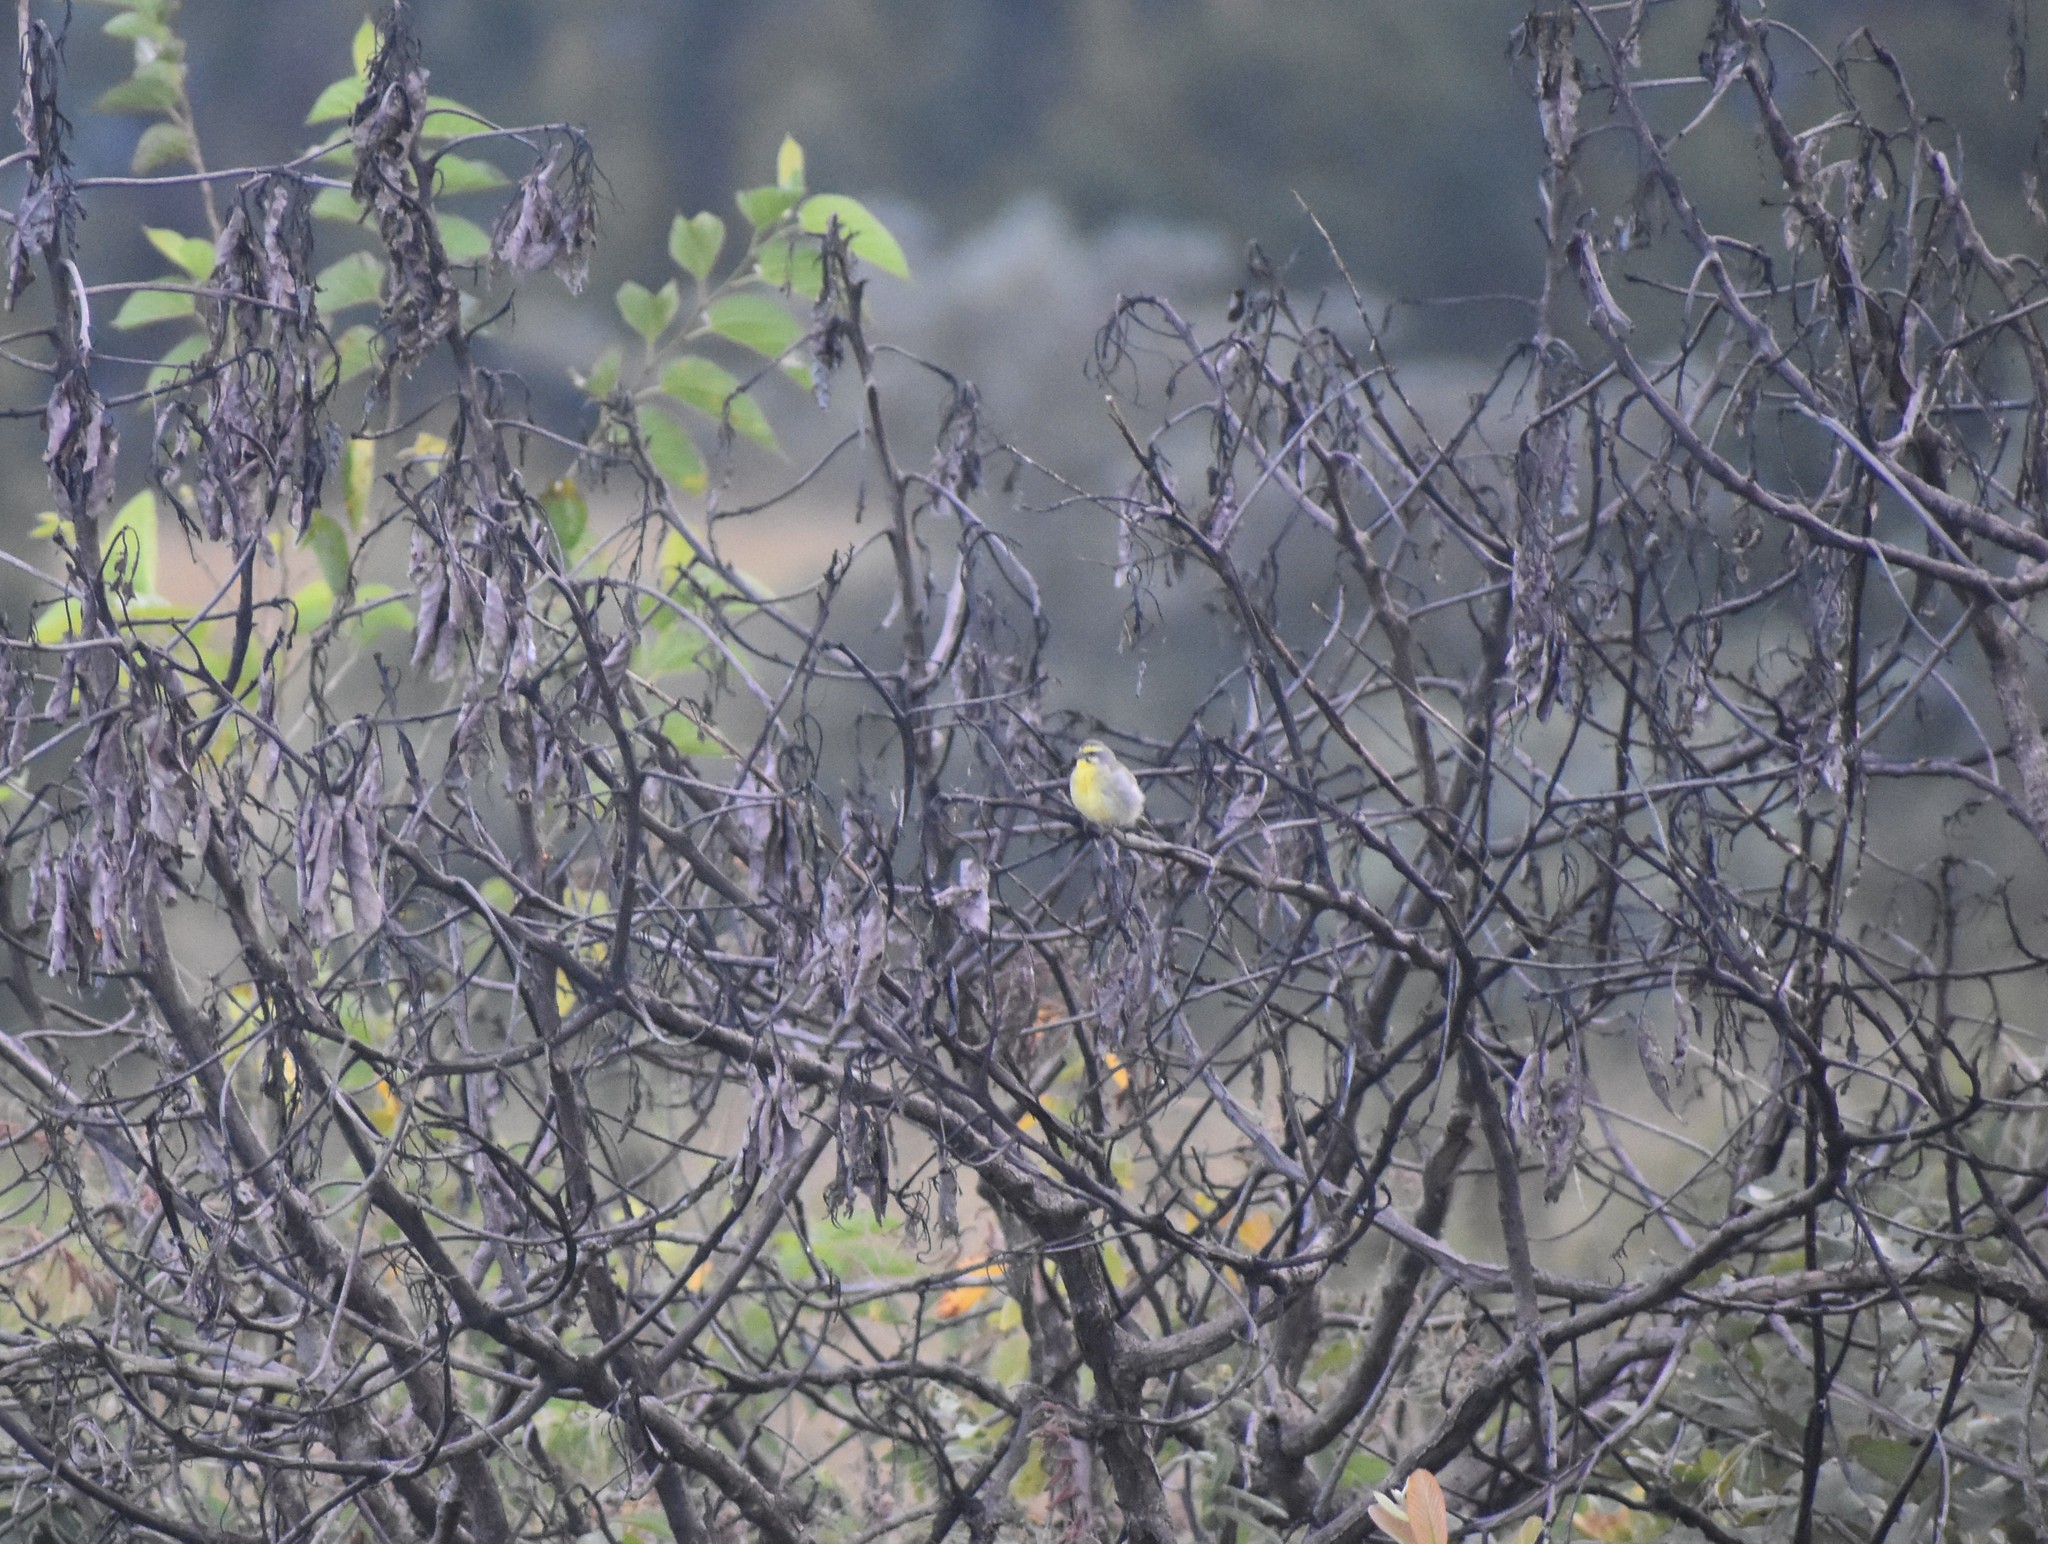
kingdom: Animalia
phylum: Chordata
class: Aves
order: Passeriformes
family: Fringillidae
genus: Crithagra
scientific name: Crithagra mozambica
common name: Yellow-fronted canary
